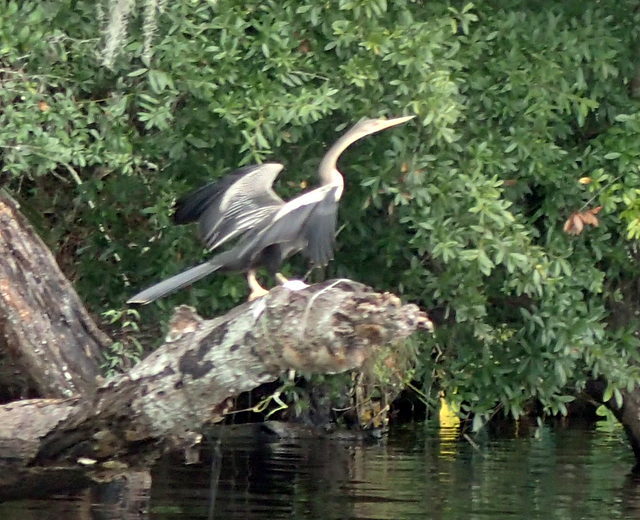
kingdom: Animalia
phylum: Chordata
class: Aves
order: Suliformes
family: Anhingidae
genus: Anhinga
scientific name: Anhinga anhinga
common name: Anhinga
